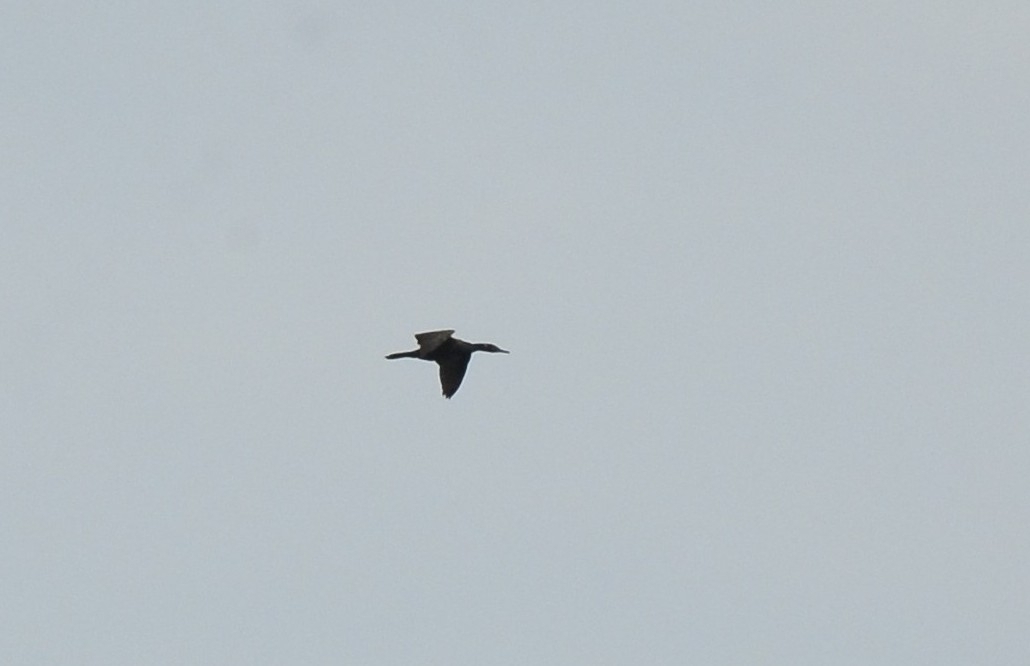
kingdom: Animalia
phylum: Chordata
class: Aves
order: Suliformes
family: Phalacrocoracidae
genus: Phalacrocorax
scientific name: Phalacrocorax fuscicollis
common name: Indian cormorant
